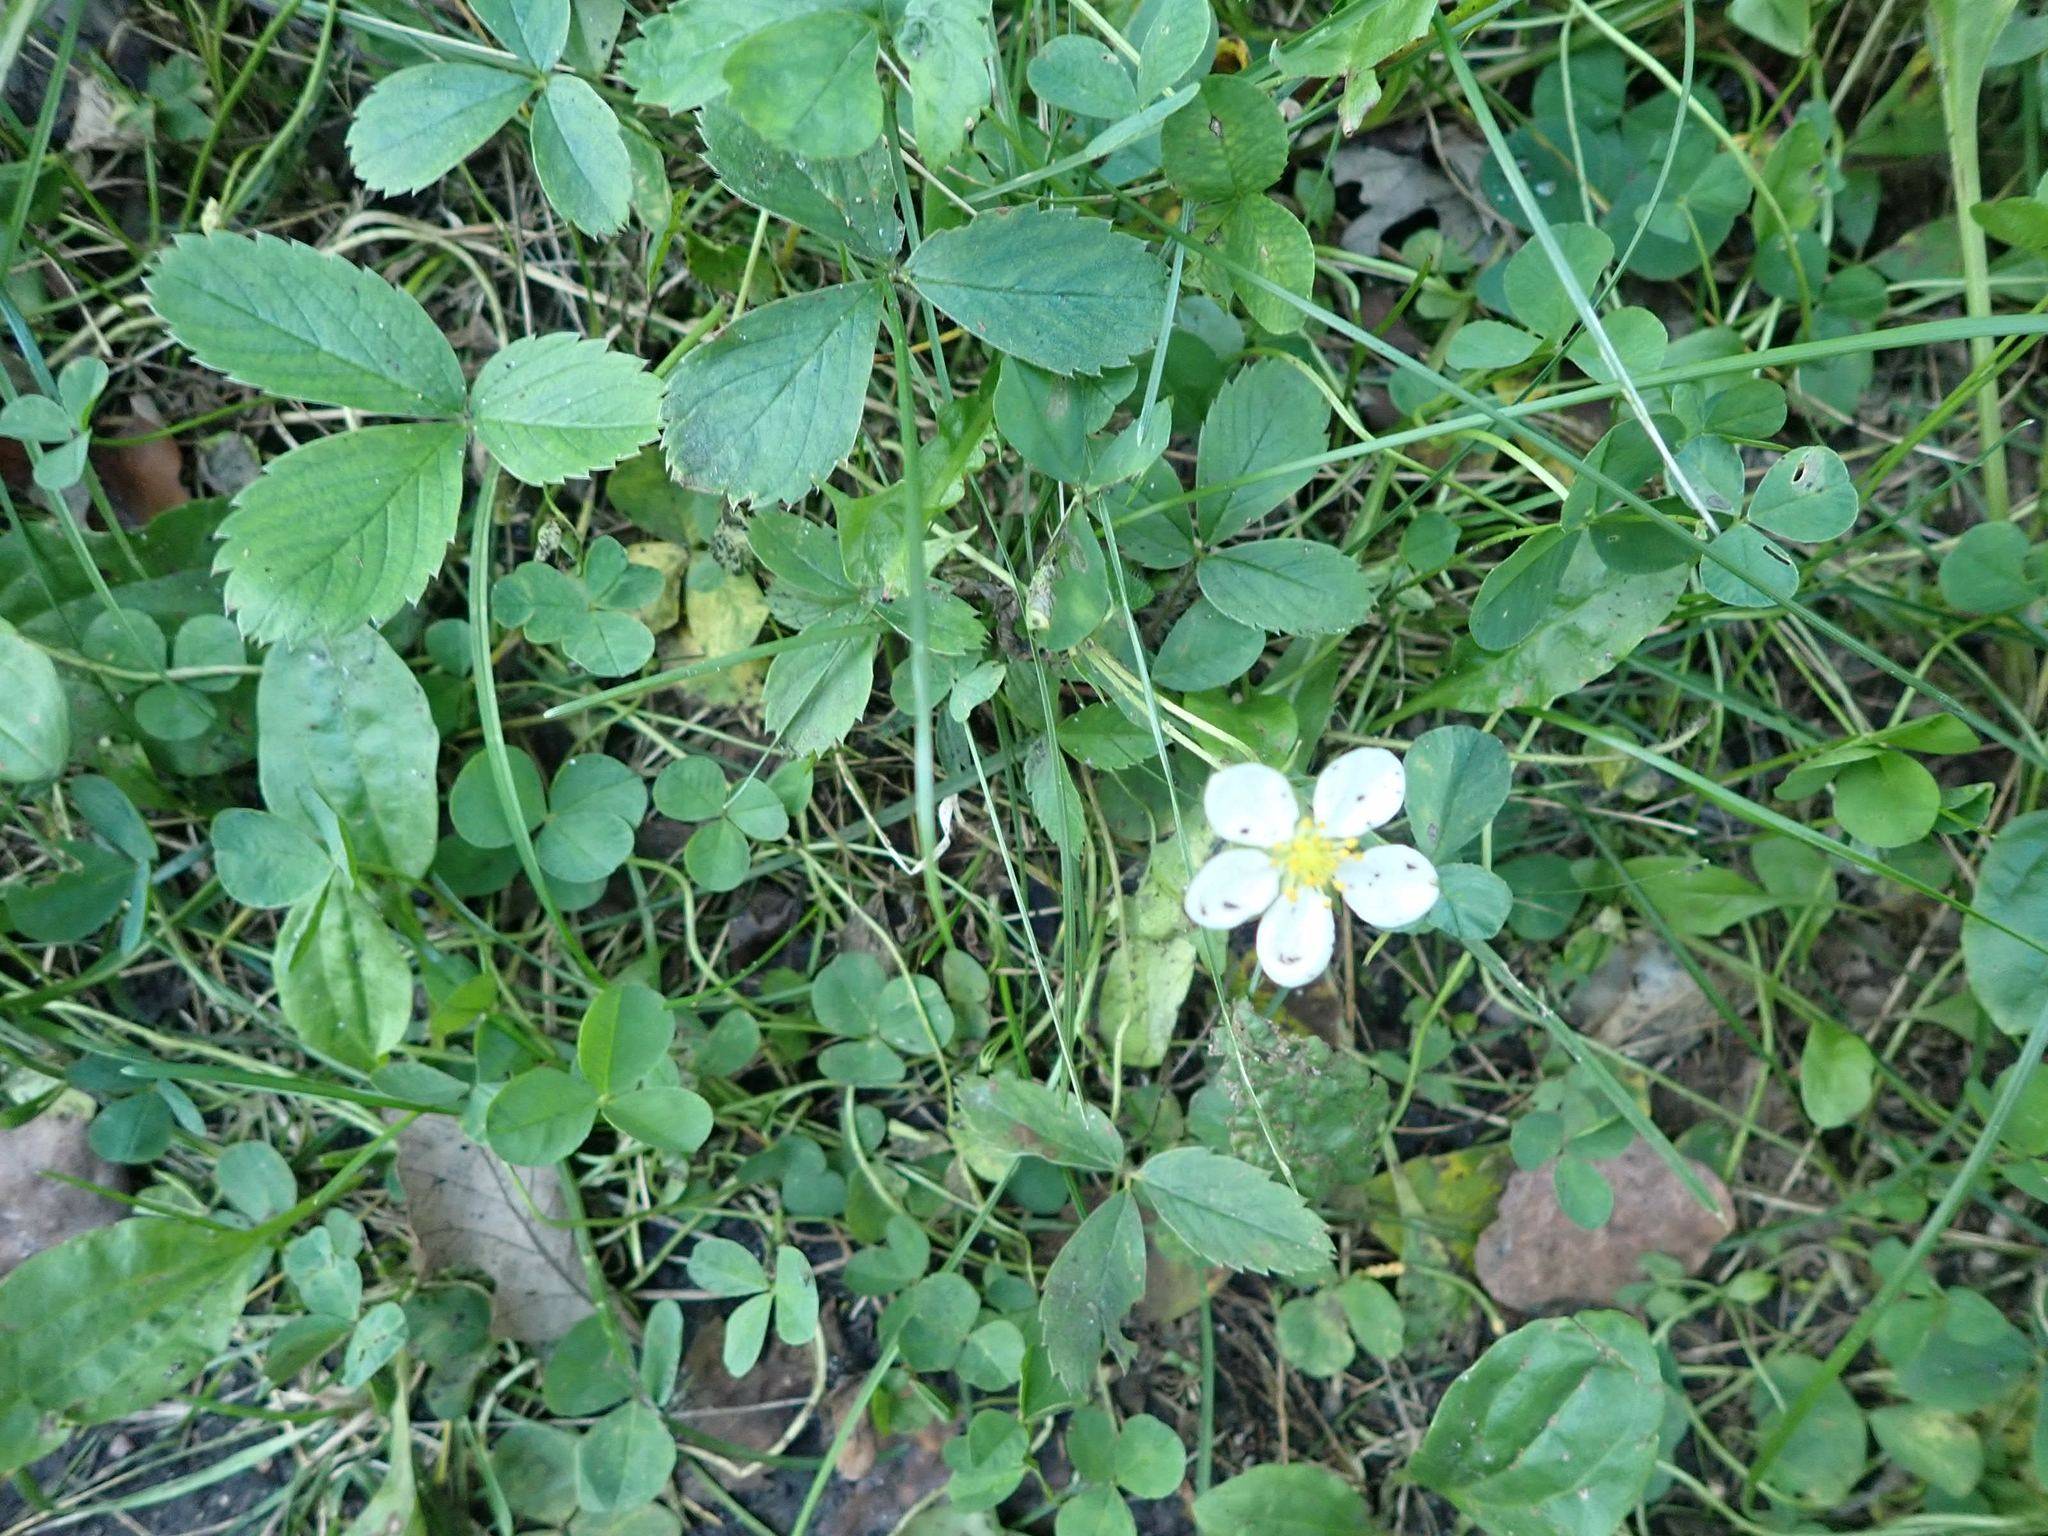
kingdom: Plantae
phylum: Tracheophyta
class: Magnoliopsida
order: Rosales
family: Rosaceae
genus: Fragaria
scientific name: Fragaria virginiana
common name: Thickleaved wild strawberry
